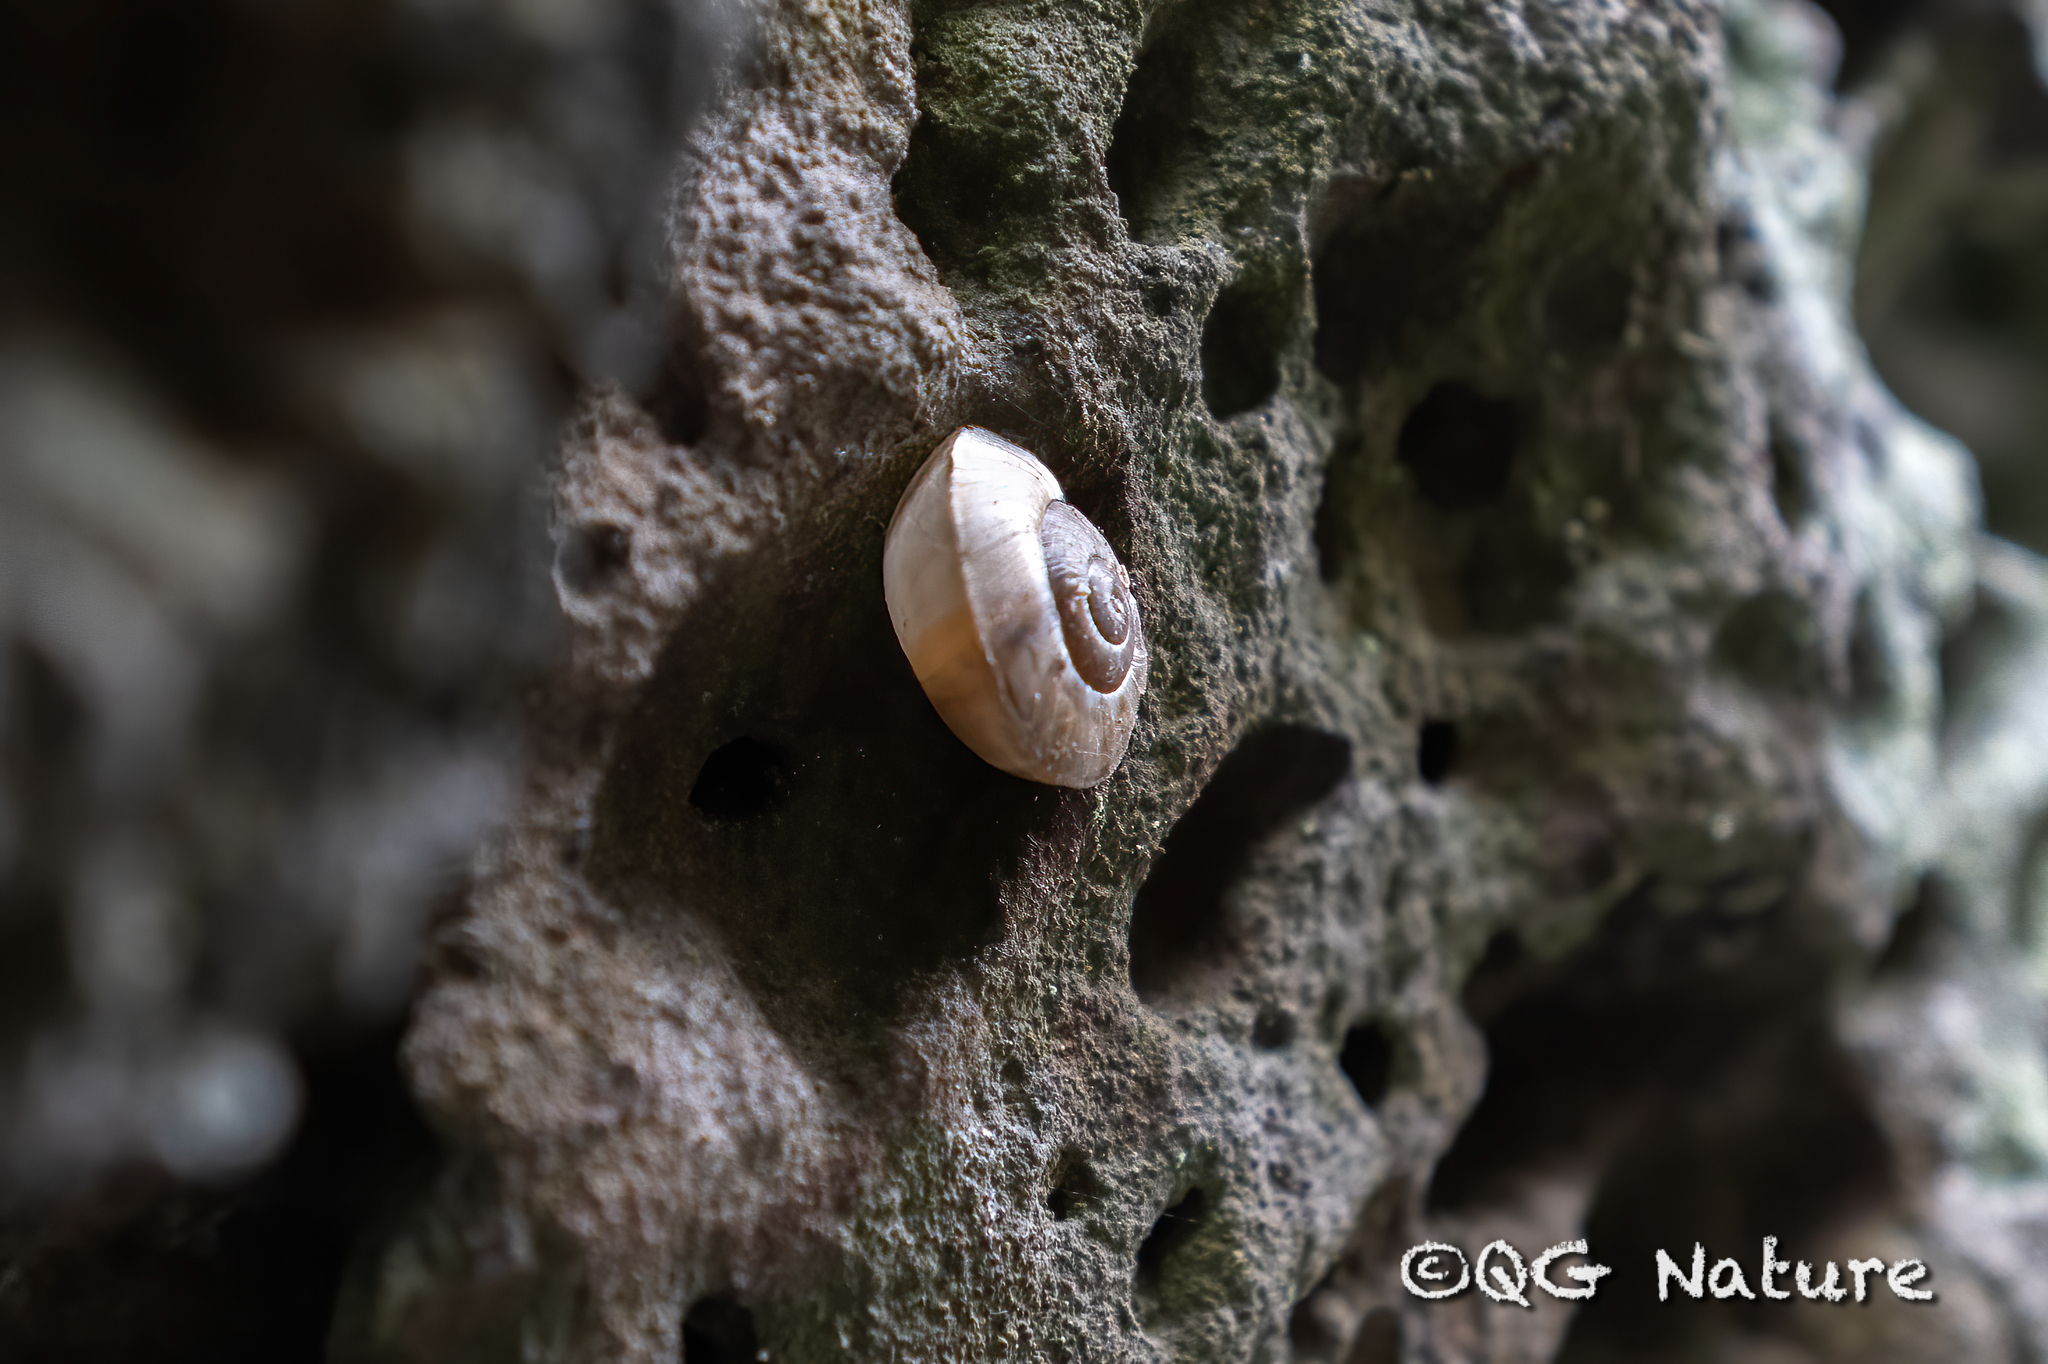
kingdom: Animalia
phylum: Mollusca
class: Gastropoda
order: Stylommatophora
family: Camaenidae
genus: Camaenella
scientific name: Camaenella platyodon
